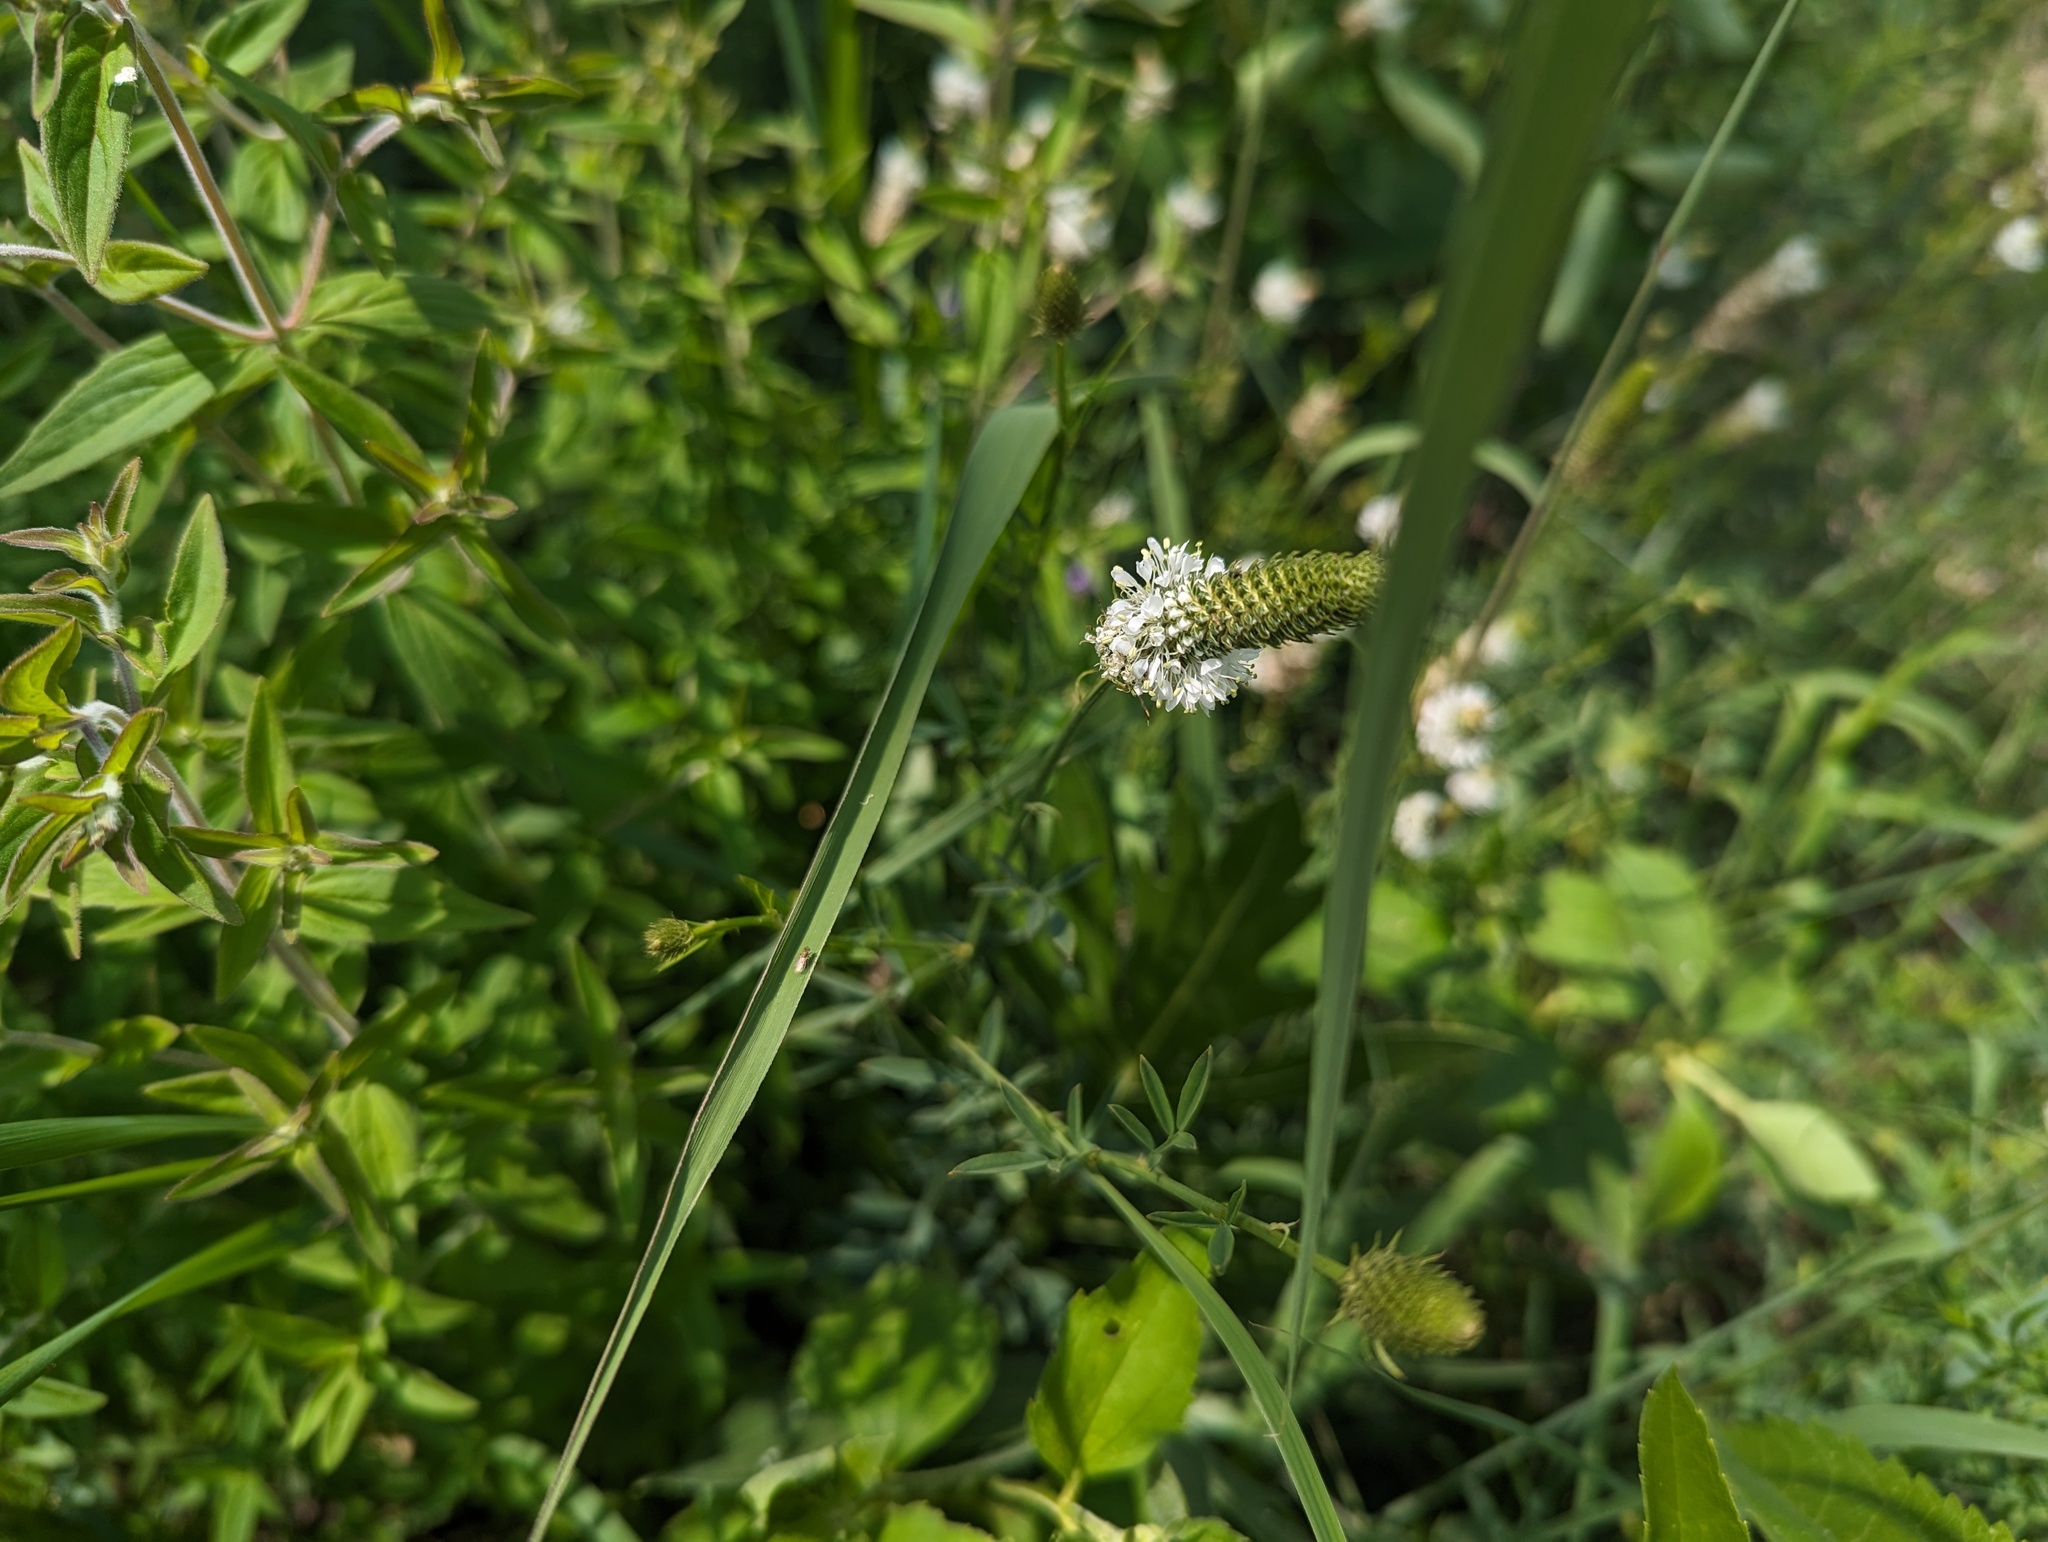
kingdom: Plantae
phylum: Tracheophyta
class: Magnoliopsida
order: Fabales
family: Fabaceae
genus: Dalea
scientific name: Dalea candida
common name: White prairie-clover
